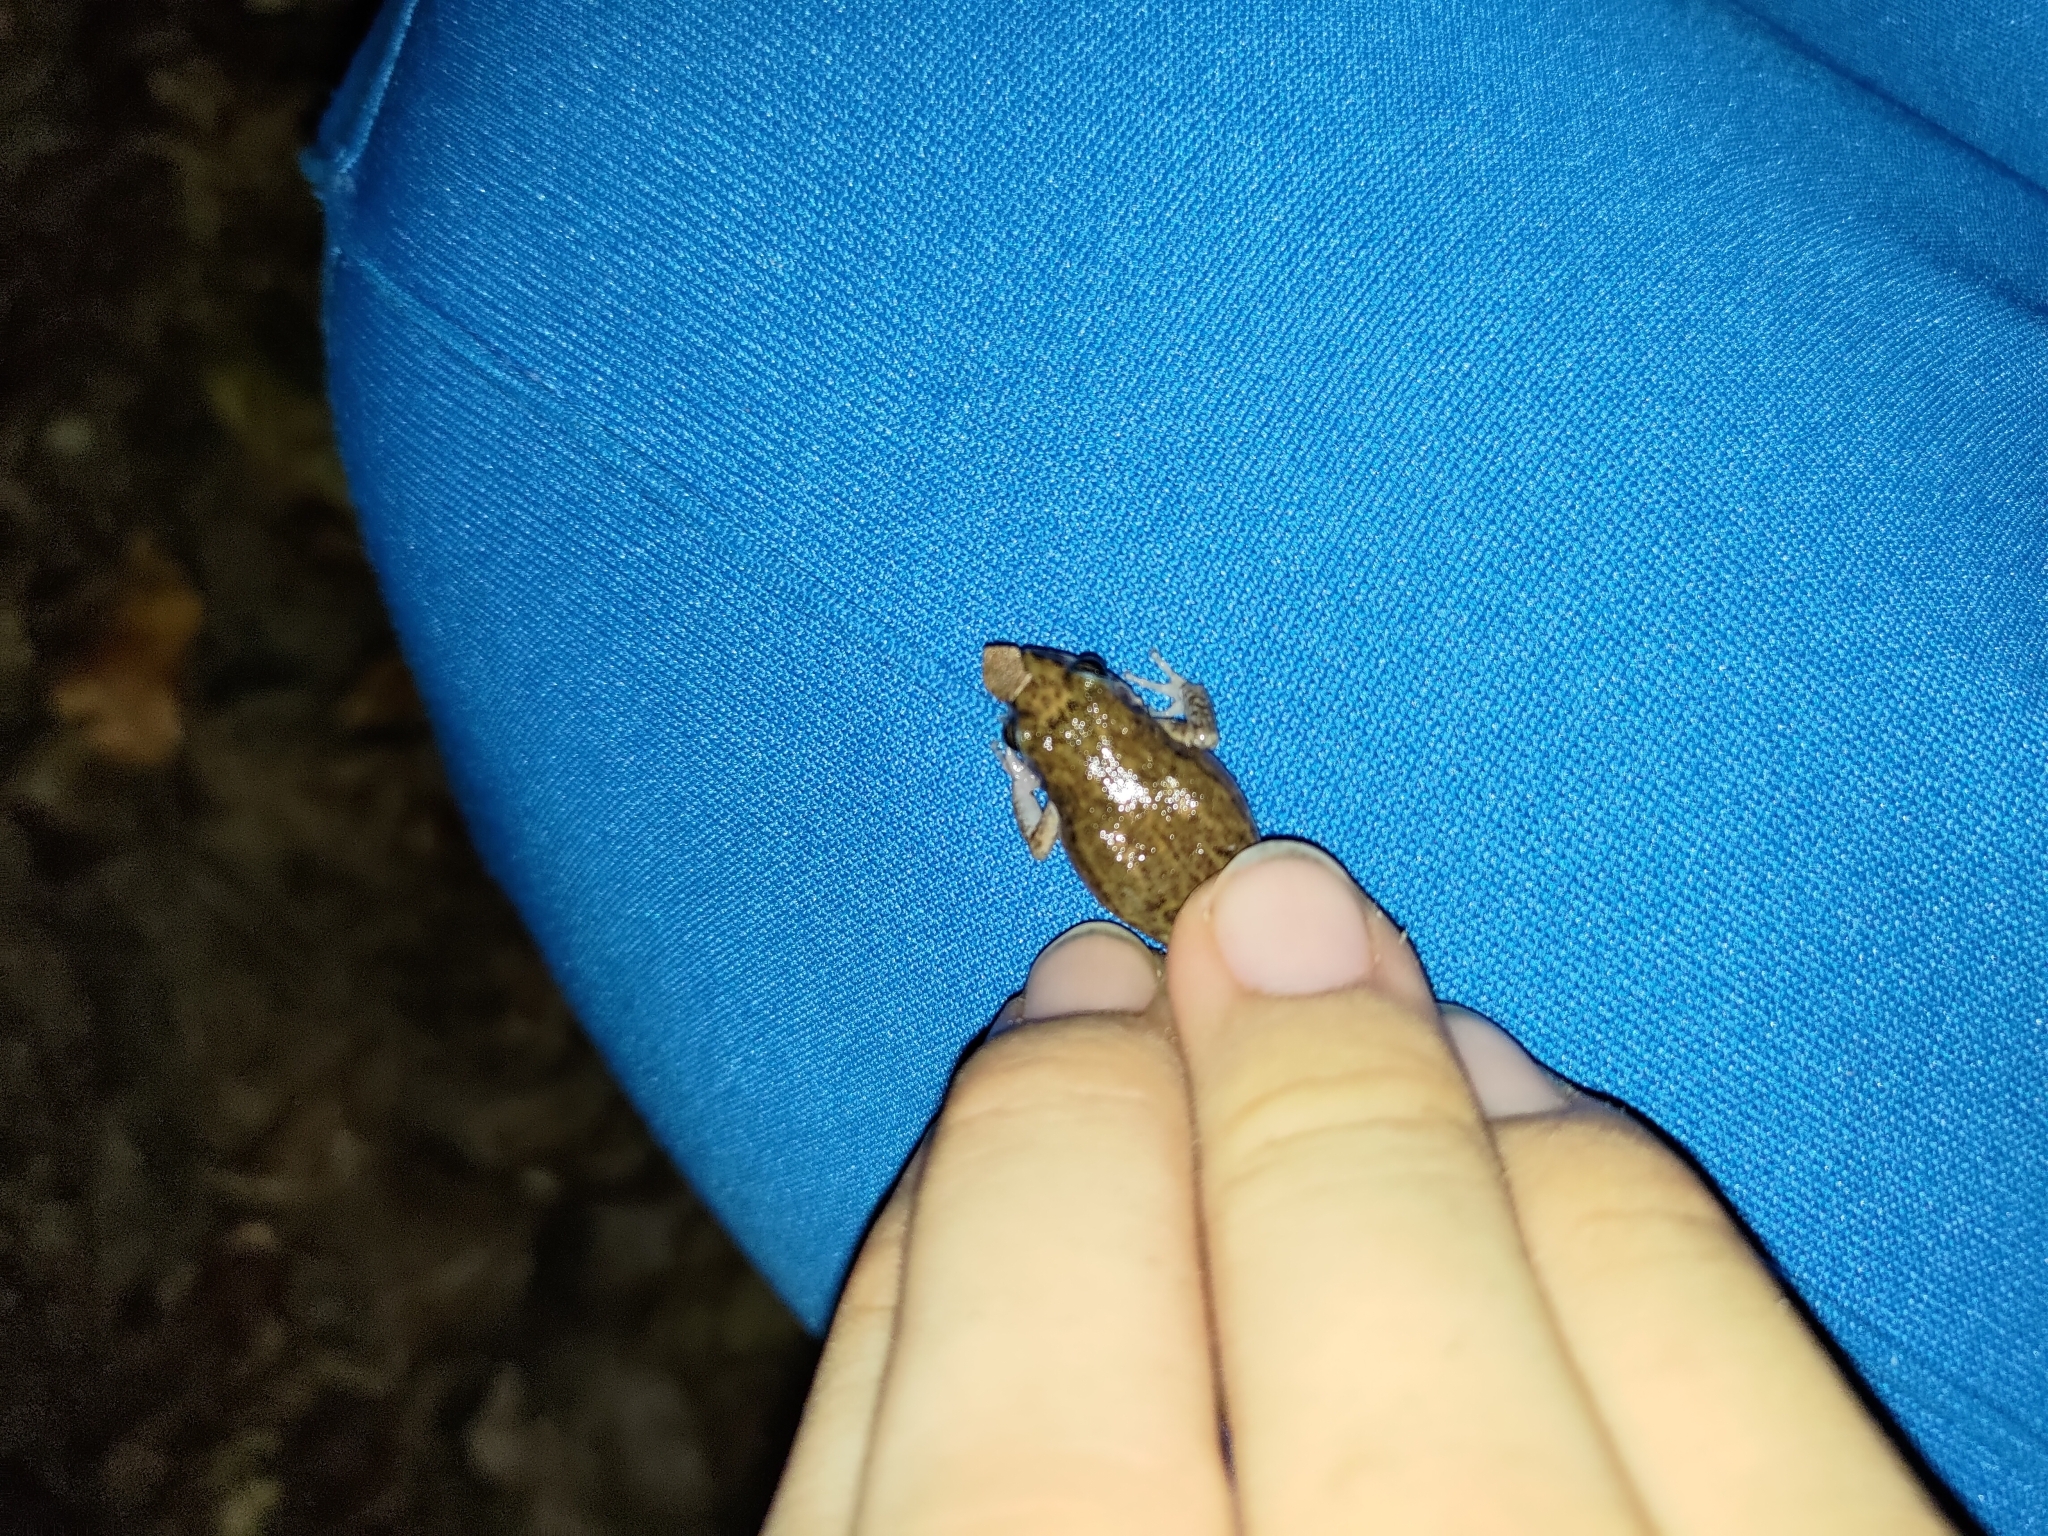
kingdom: Animalia
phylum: Chordata
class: Amphibia
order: Anura
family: Eleutherodactylidae
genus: Eleutherodactylus
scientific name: Eleutherodactylus planirostris
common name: Greenhouse frog
